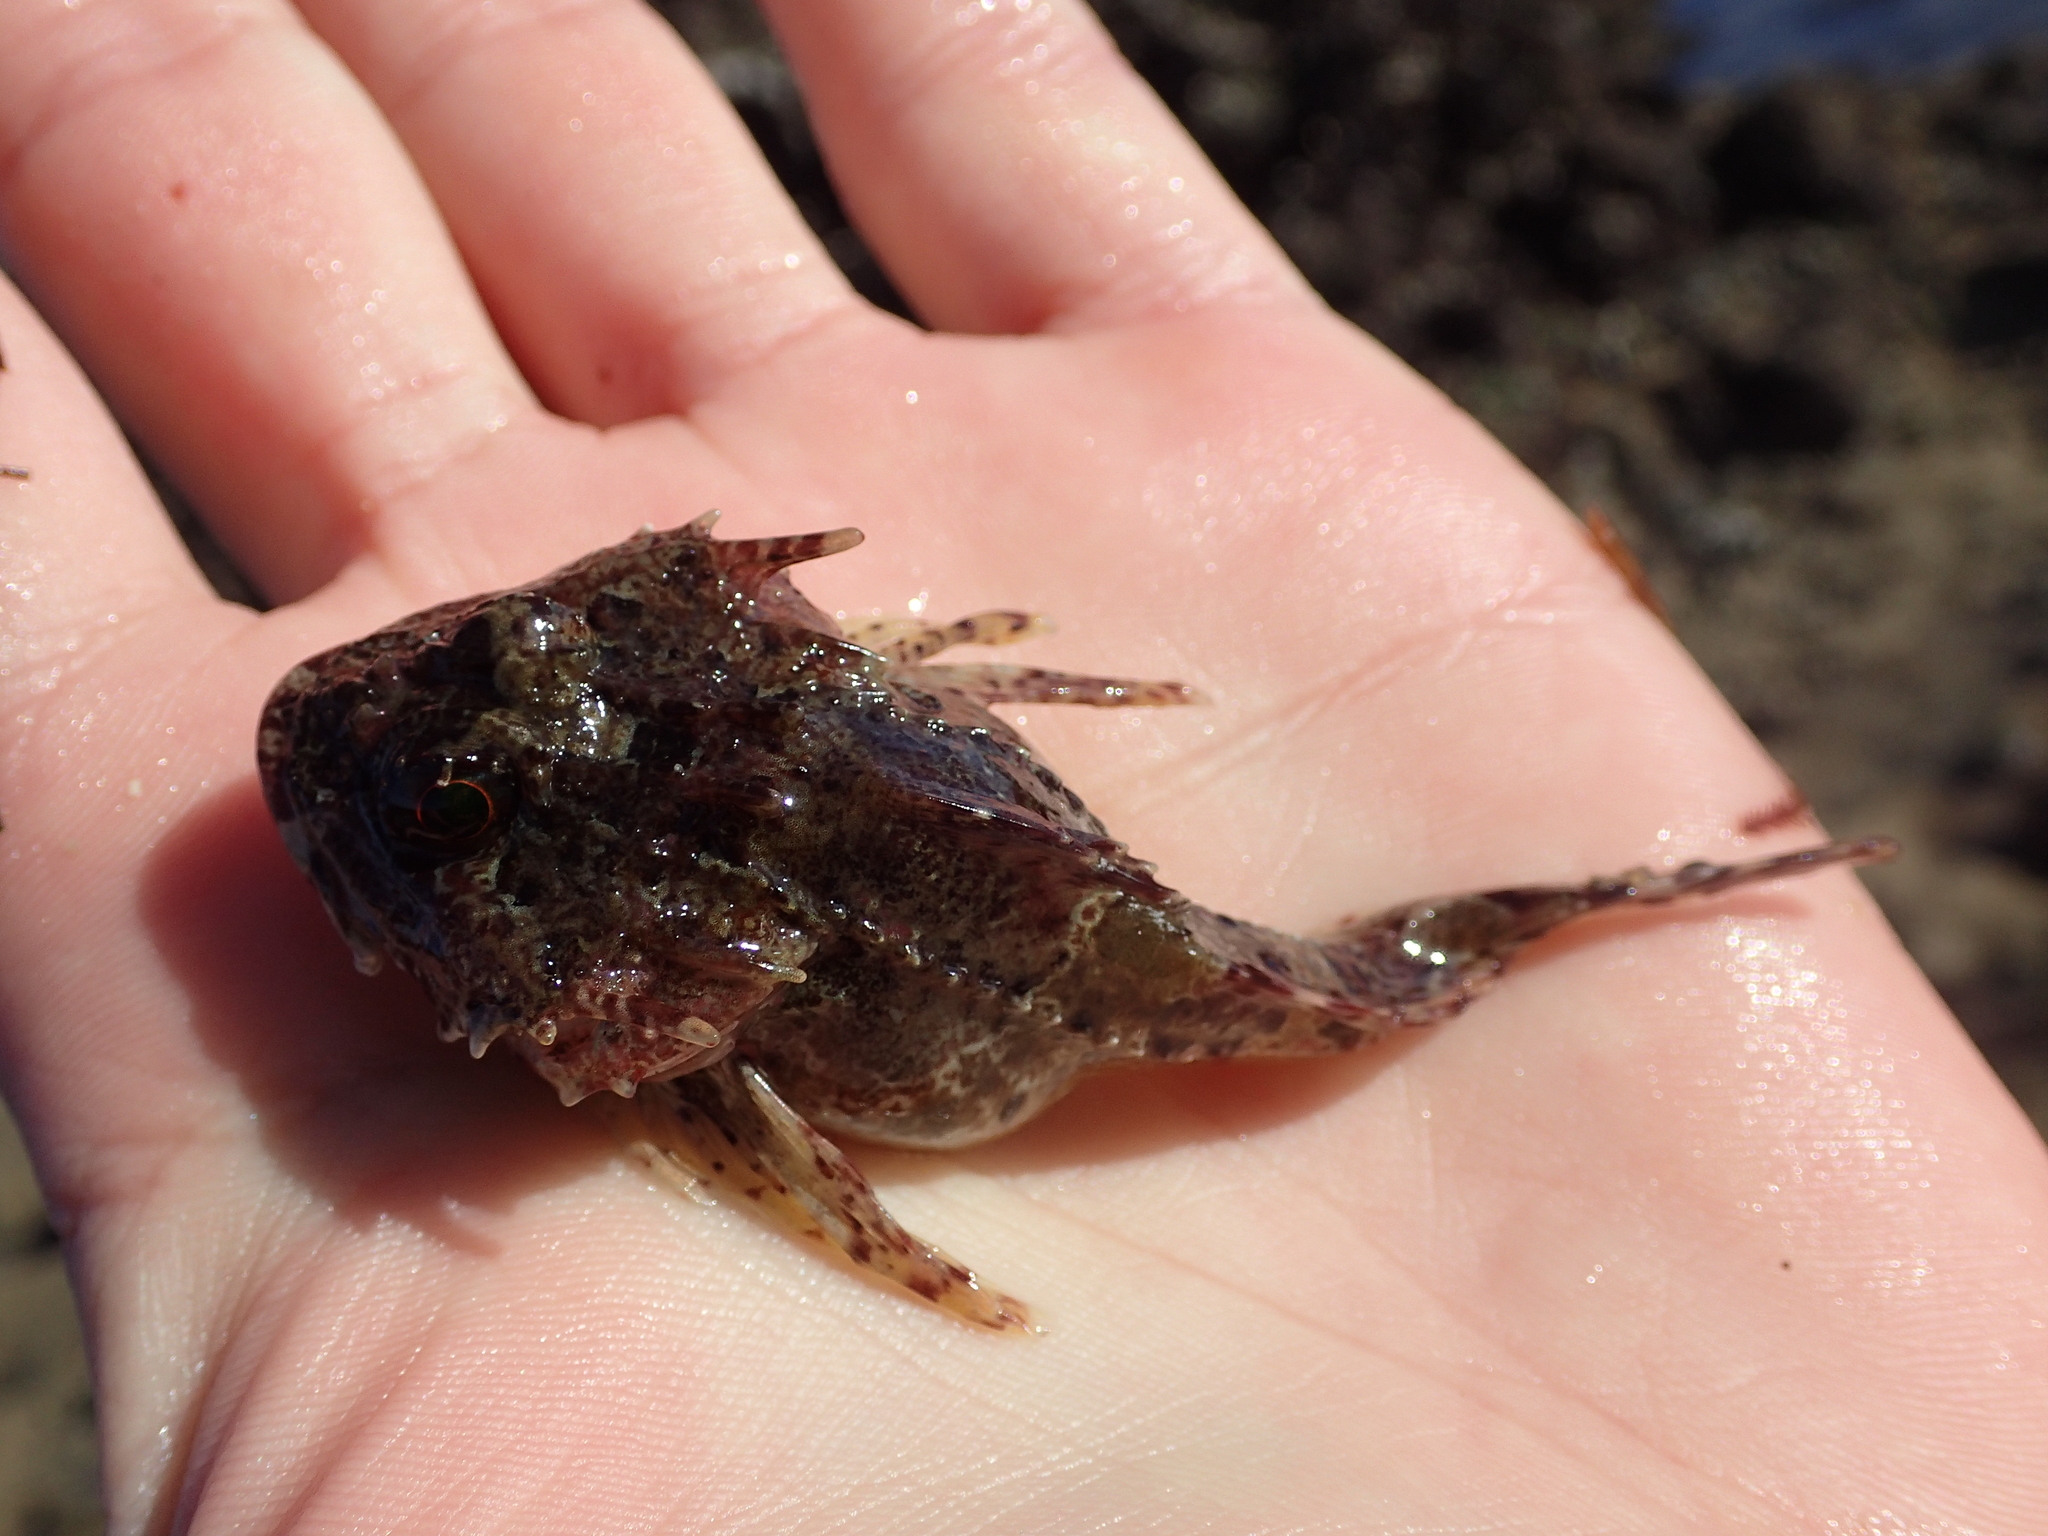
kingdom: Animalia
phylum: Chordata
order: Scorpaeniformes
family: Cottidae
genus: Taurulus
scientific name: Taurulus bubalis
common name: Sea scorpion
